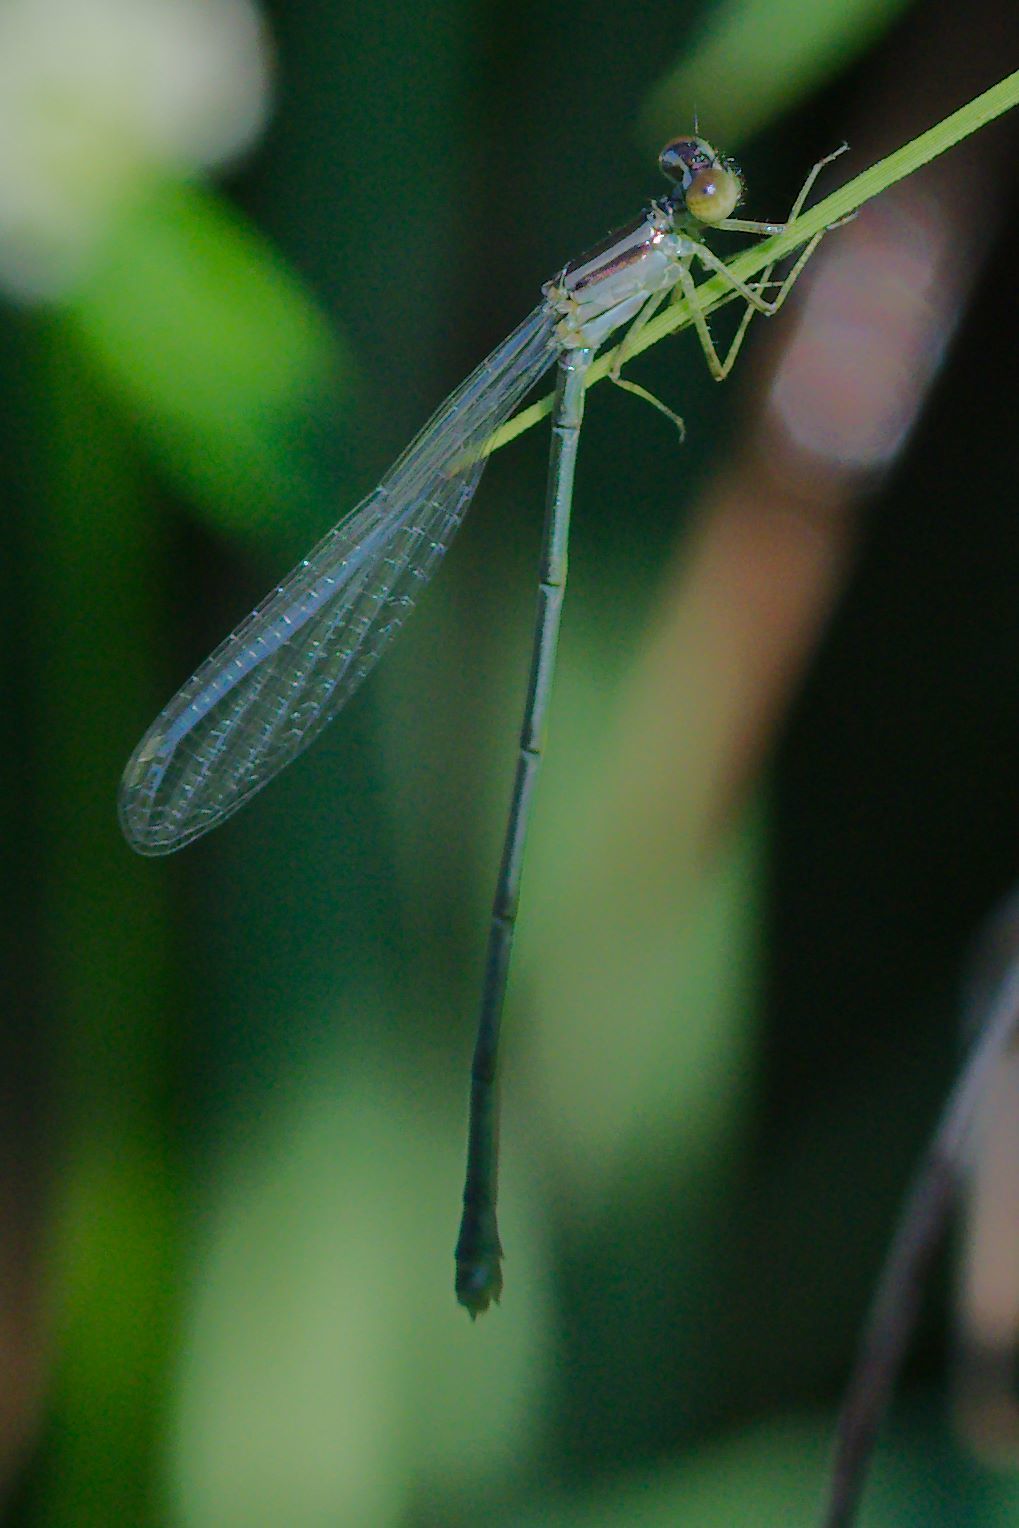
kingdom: Animalia
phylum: Arthropoda
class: Insecta
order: Odonata
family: Coenagrionidae
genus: Enallagma
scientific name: Enallagma pollutum
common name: Florida bluet
